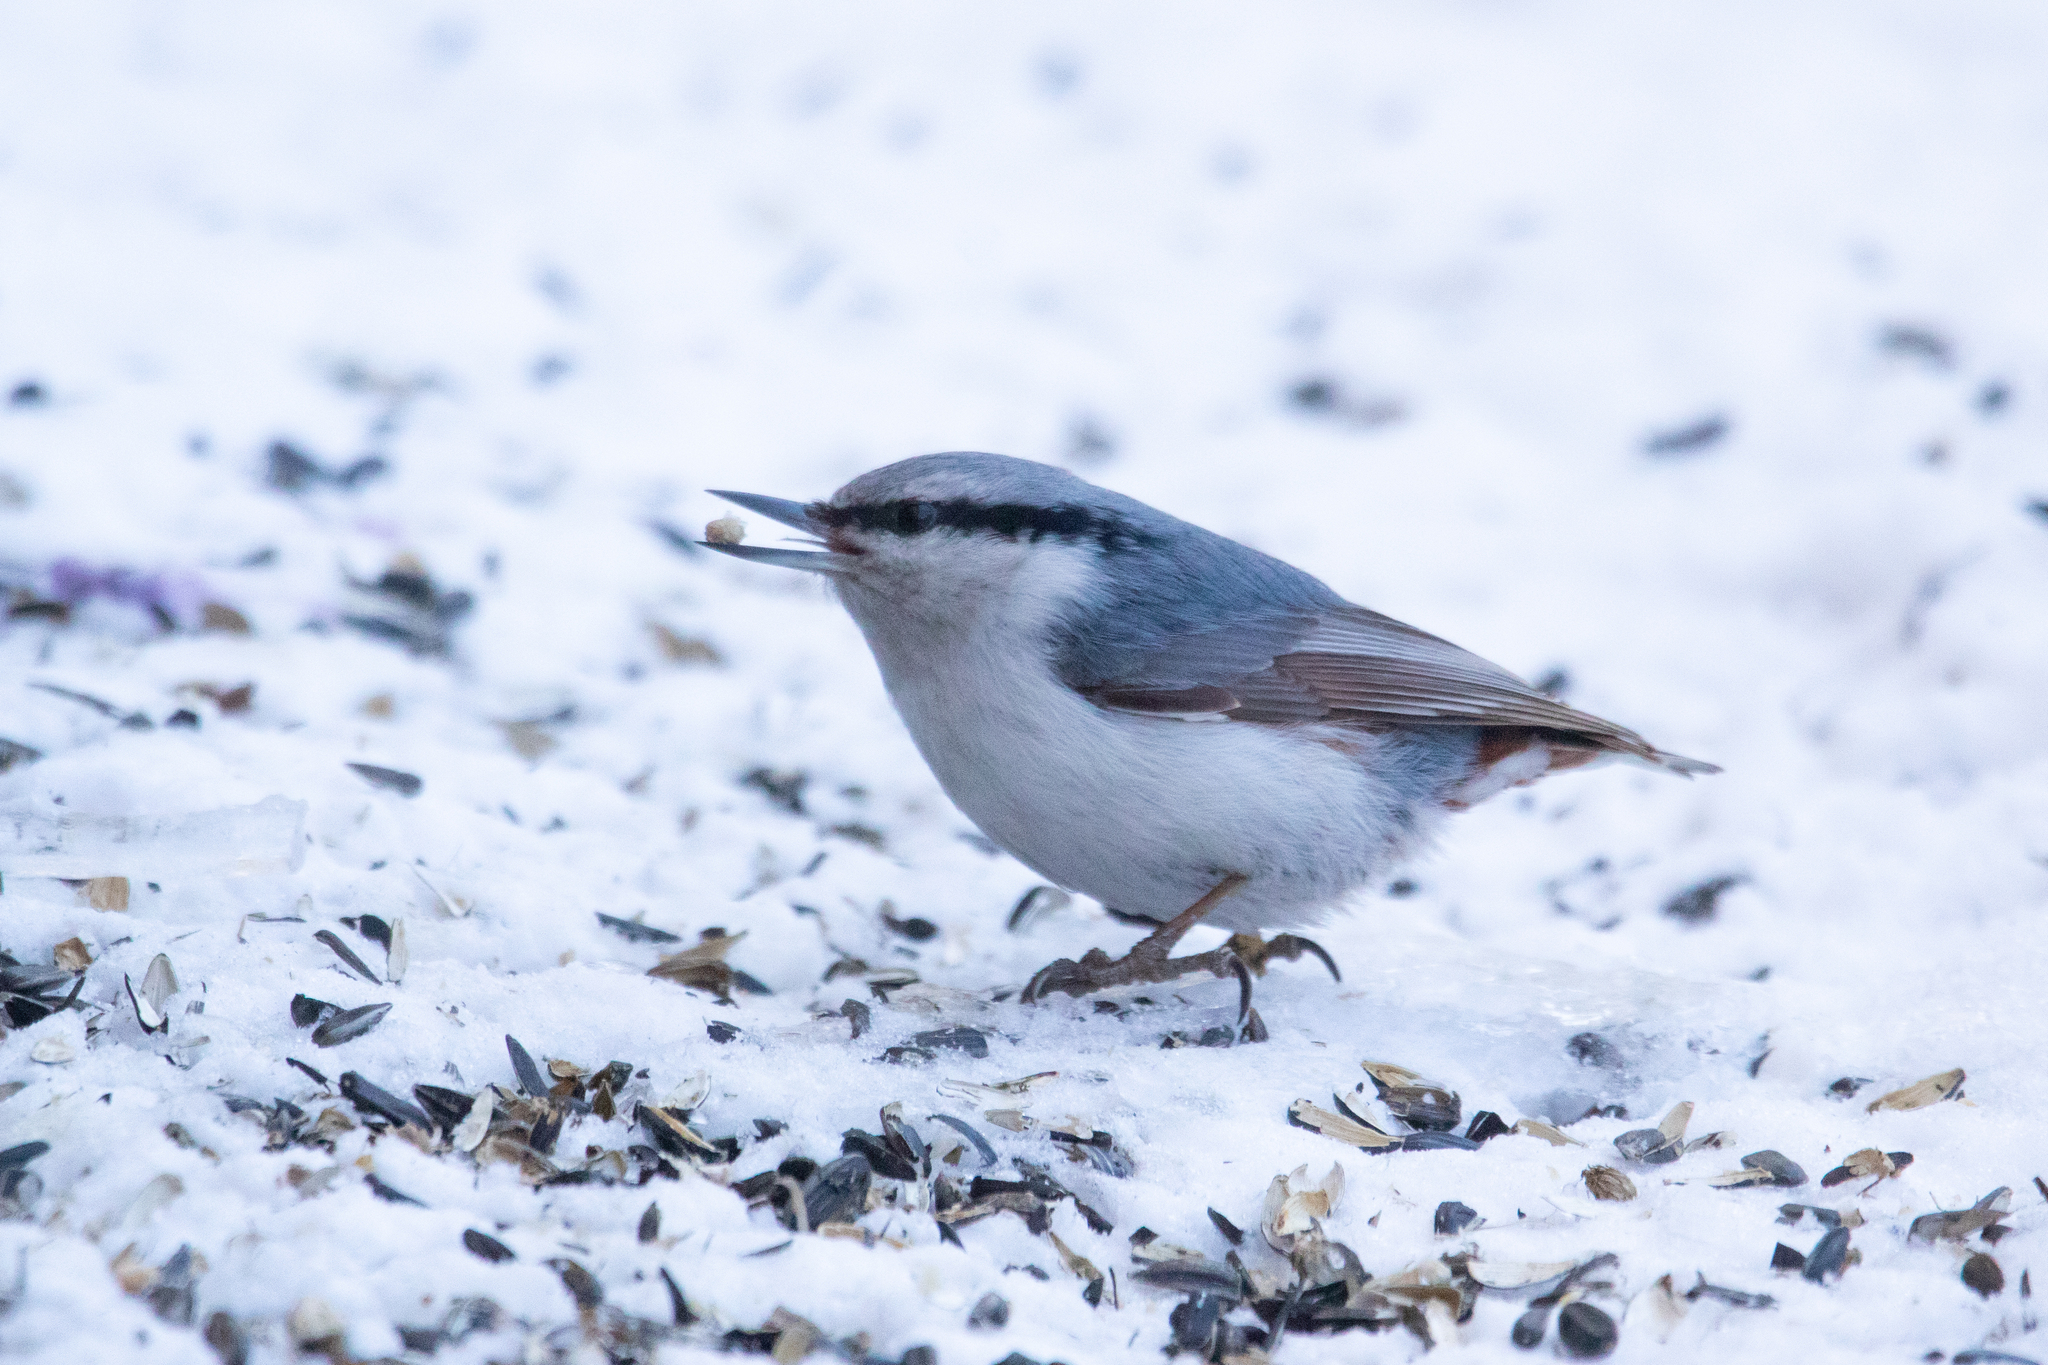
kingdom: Animalia
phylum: Chordata
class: Aves
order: Passeriformes
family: Sittidae
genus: Sitta
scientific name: Sitta europaea
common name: Eurasian nuthatch
